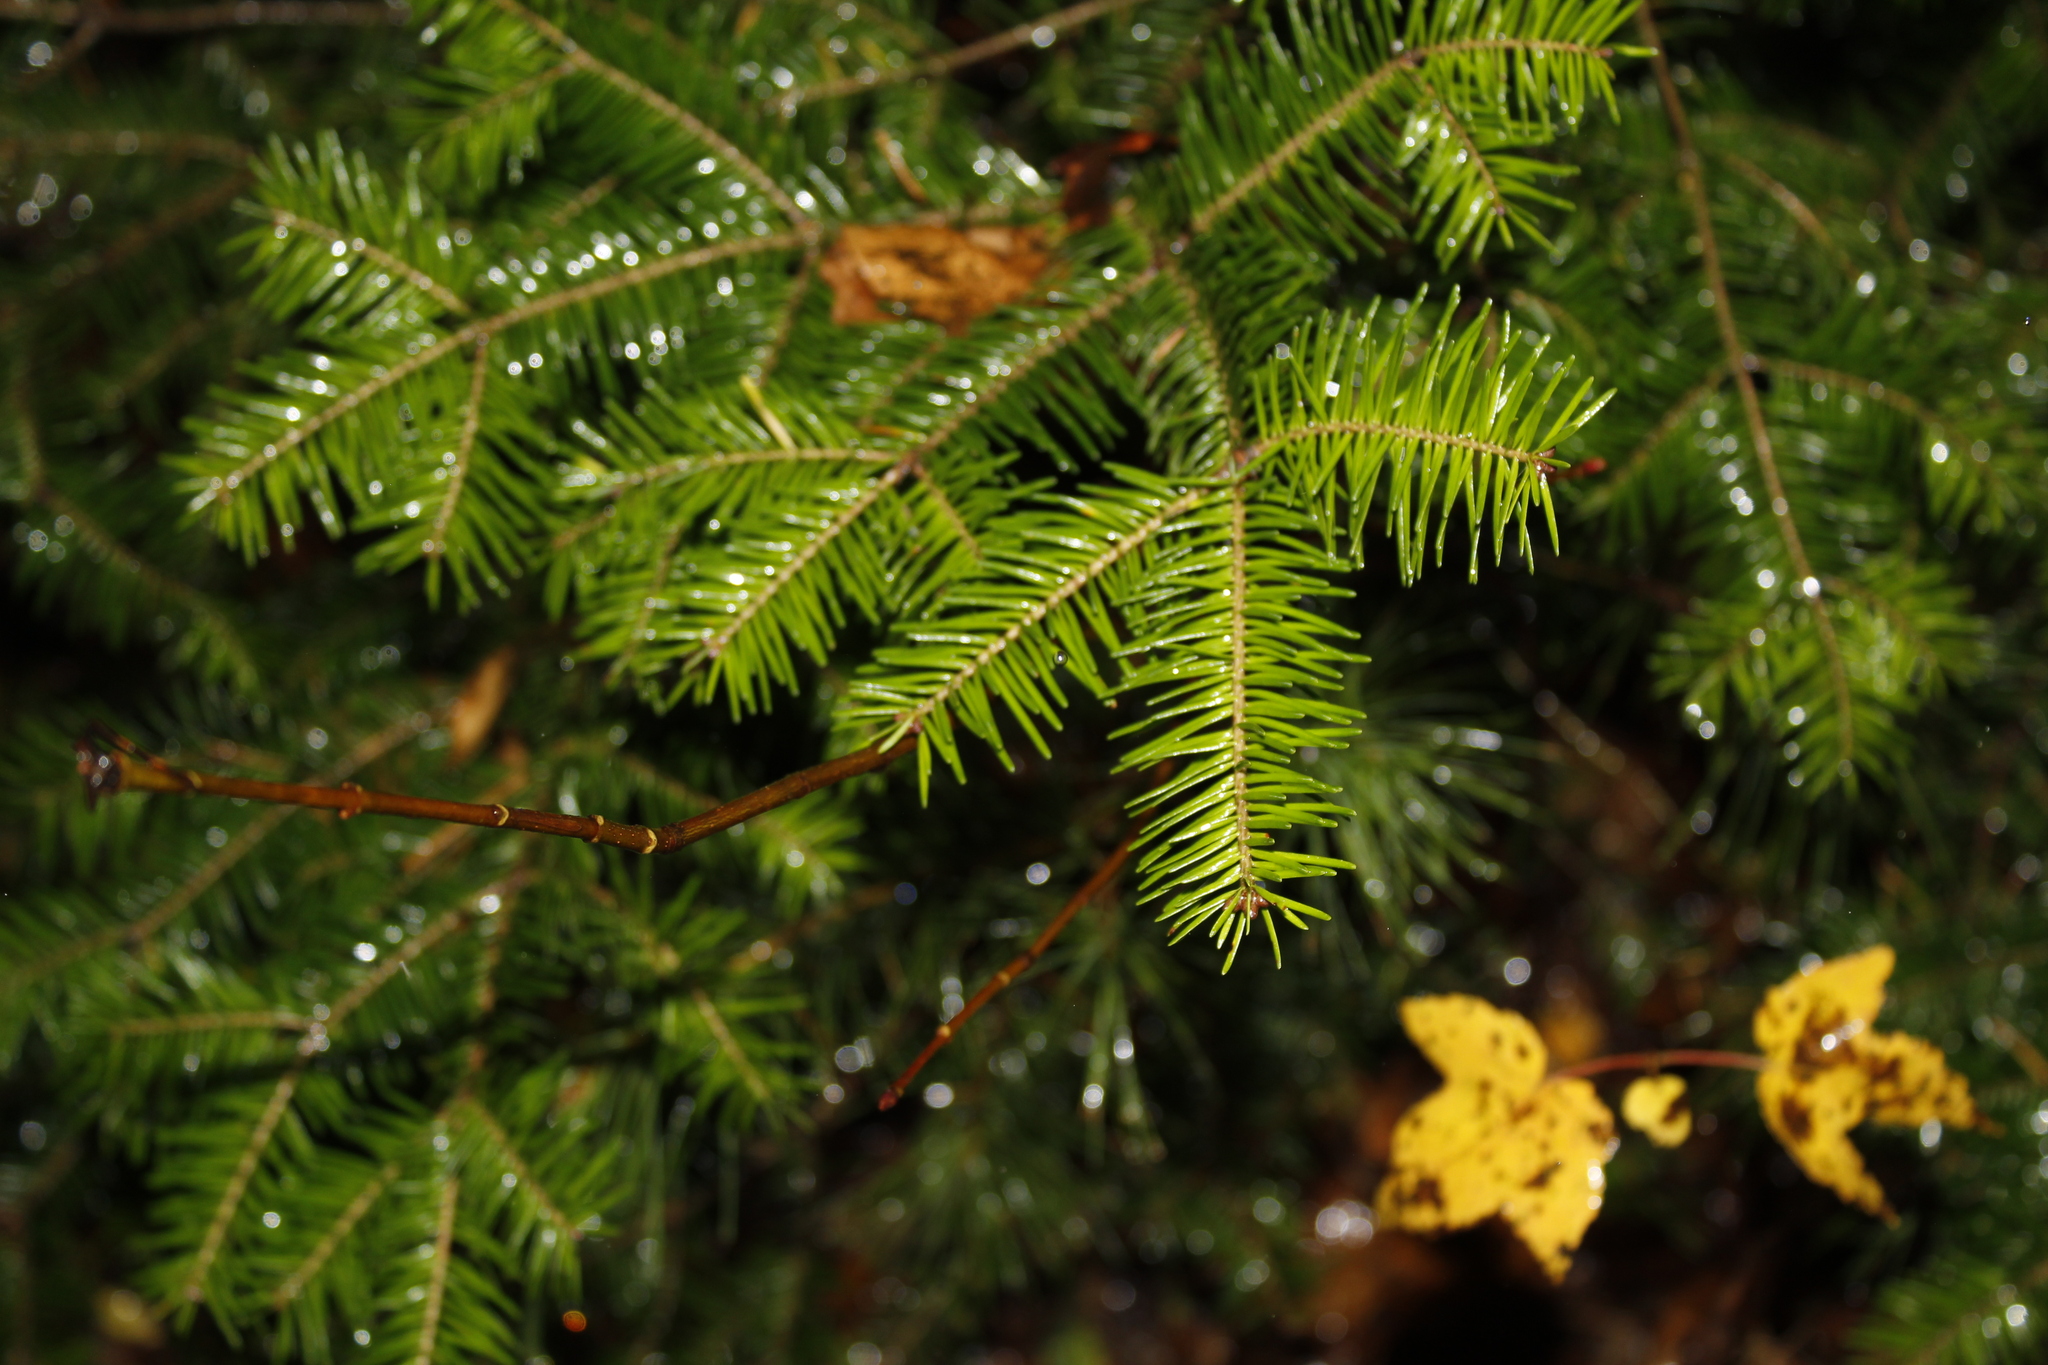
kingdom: Plantae
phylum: Tracheophyta
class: Pinopsida
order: Pinales
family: Pinaceae
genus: Abies
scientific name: Abies balsamea
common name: Balsam fir
